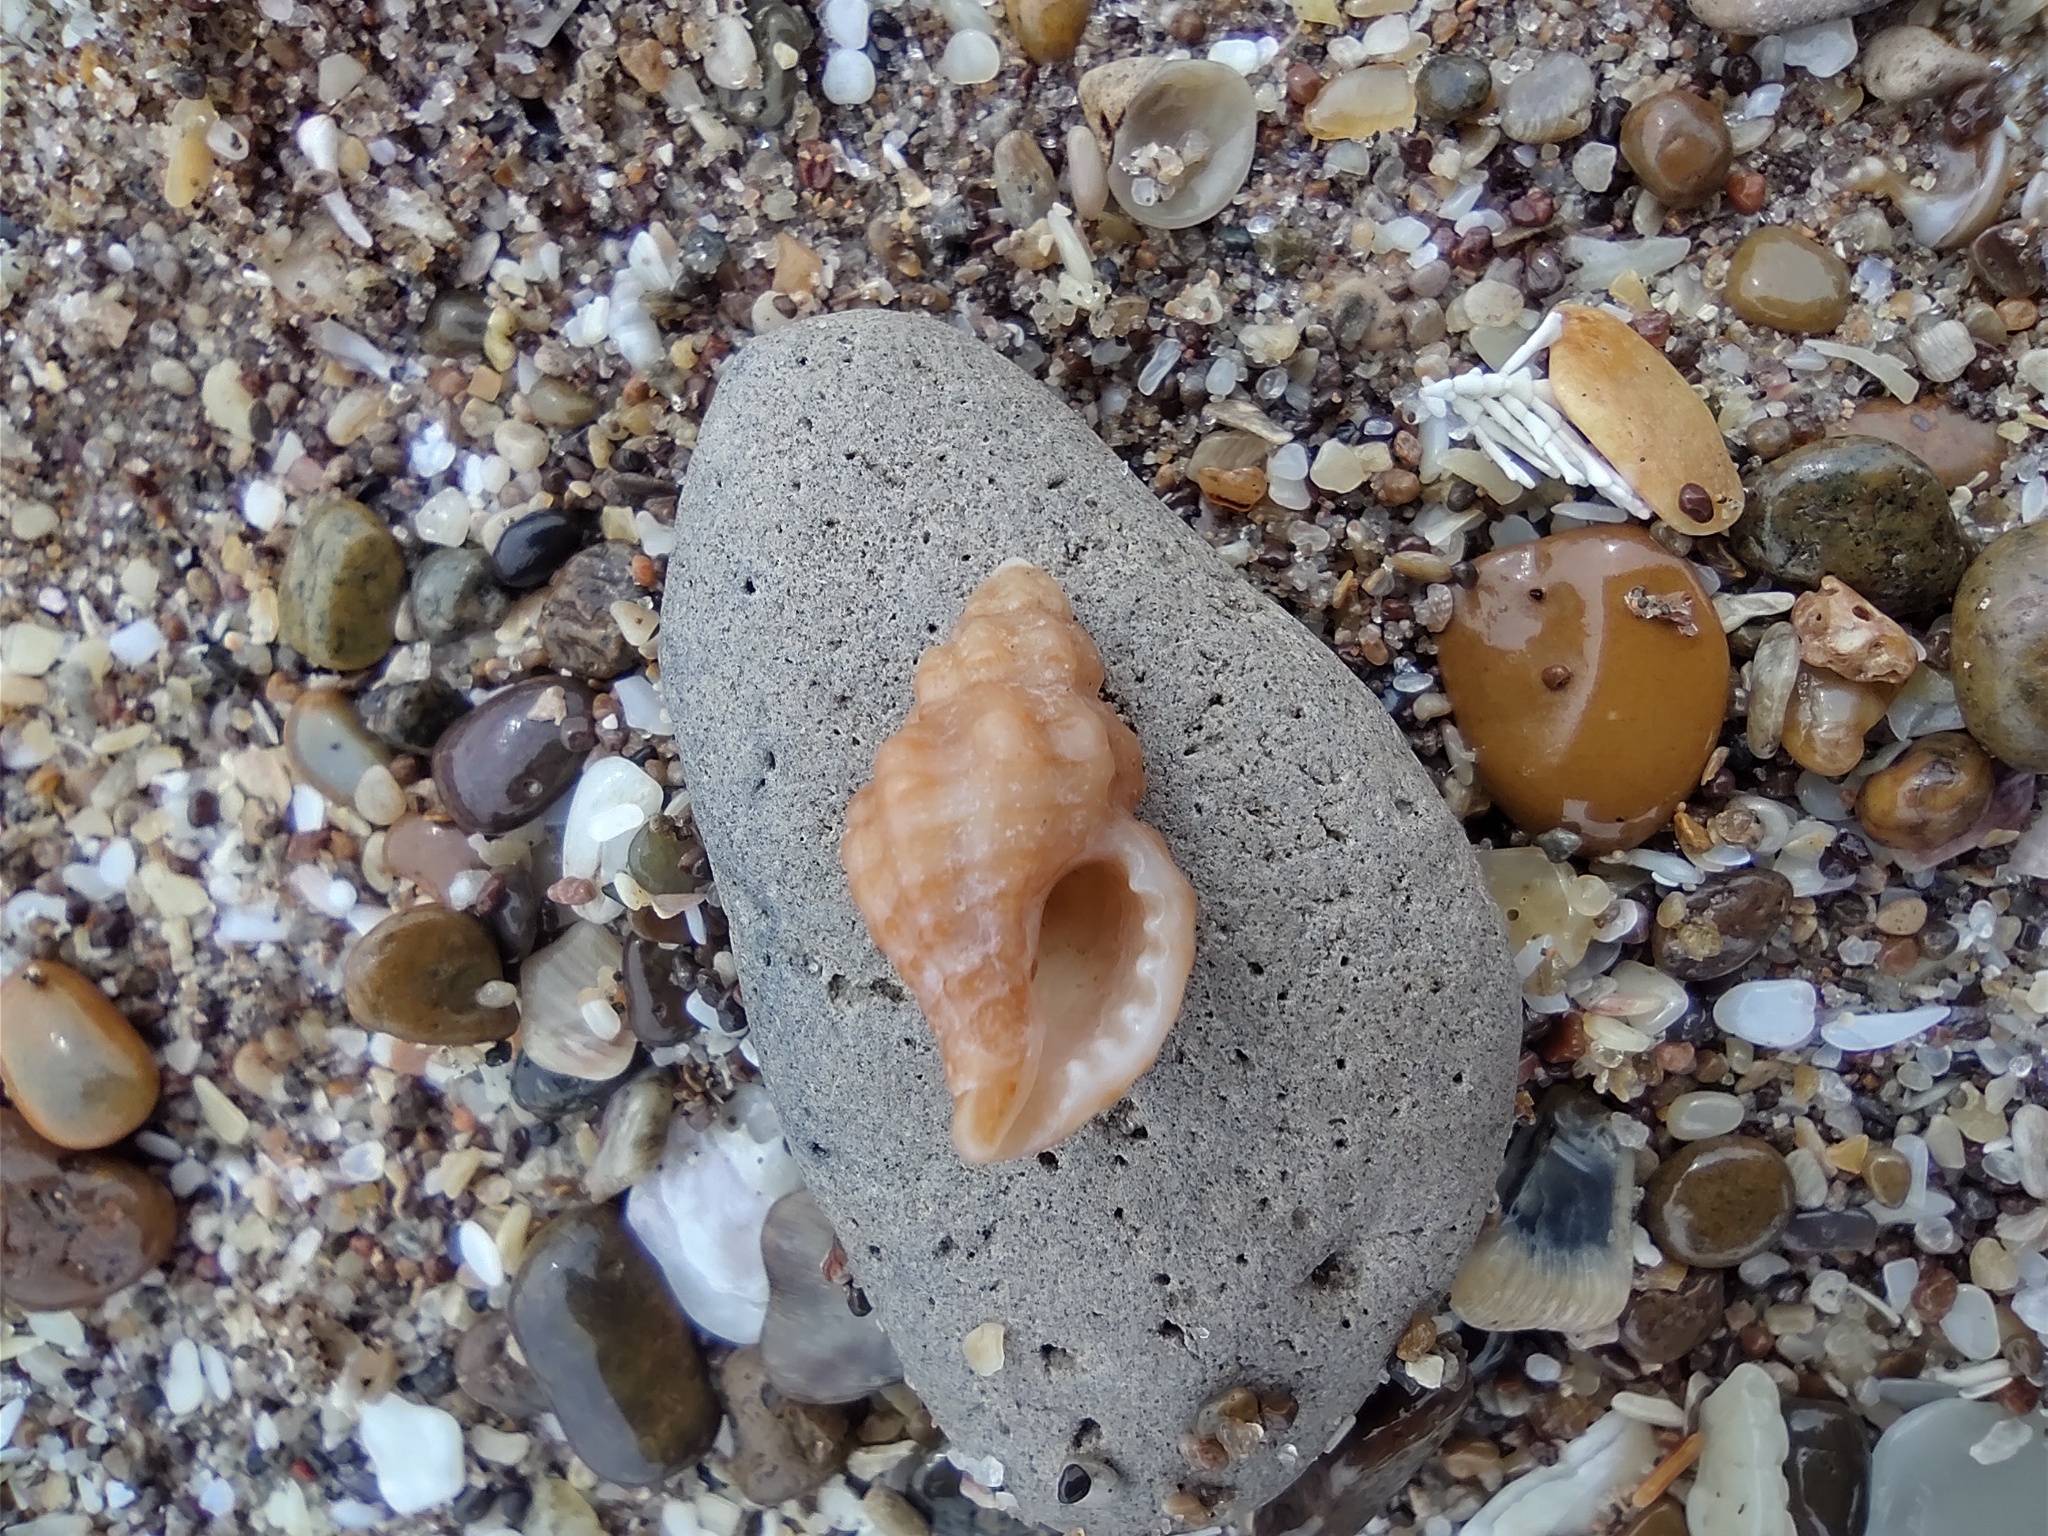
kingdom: Animalia
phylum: Mollusca
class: Gastropoda
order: Neogastropoda
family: Muricidae
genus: Muricopsis
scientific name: Muricopsis necocheana
